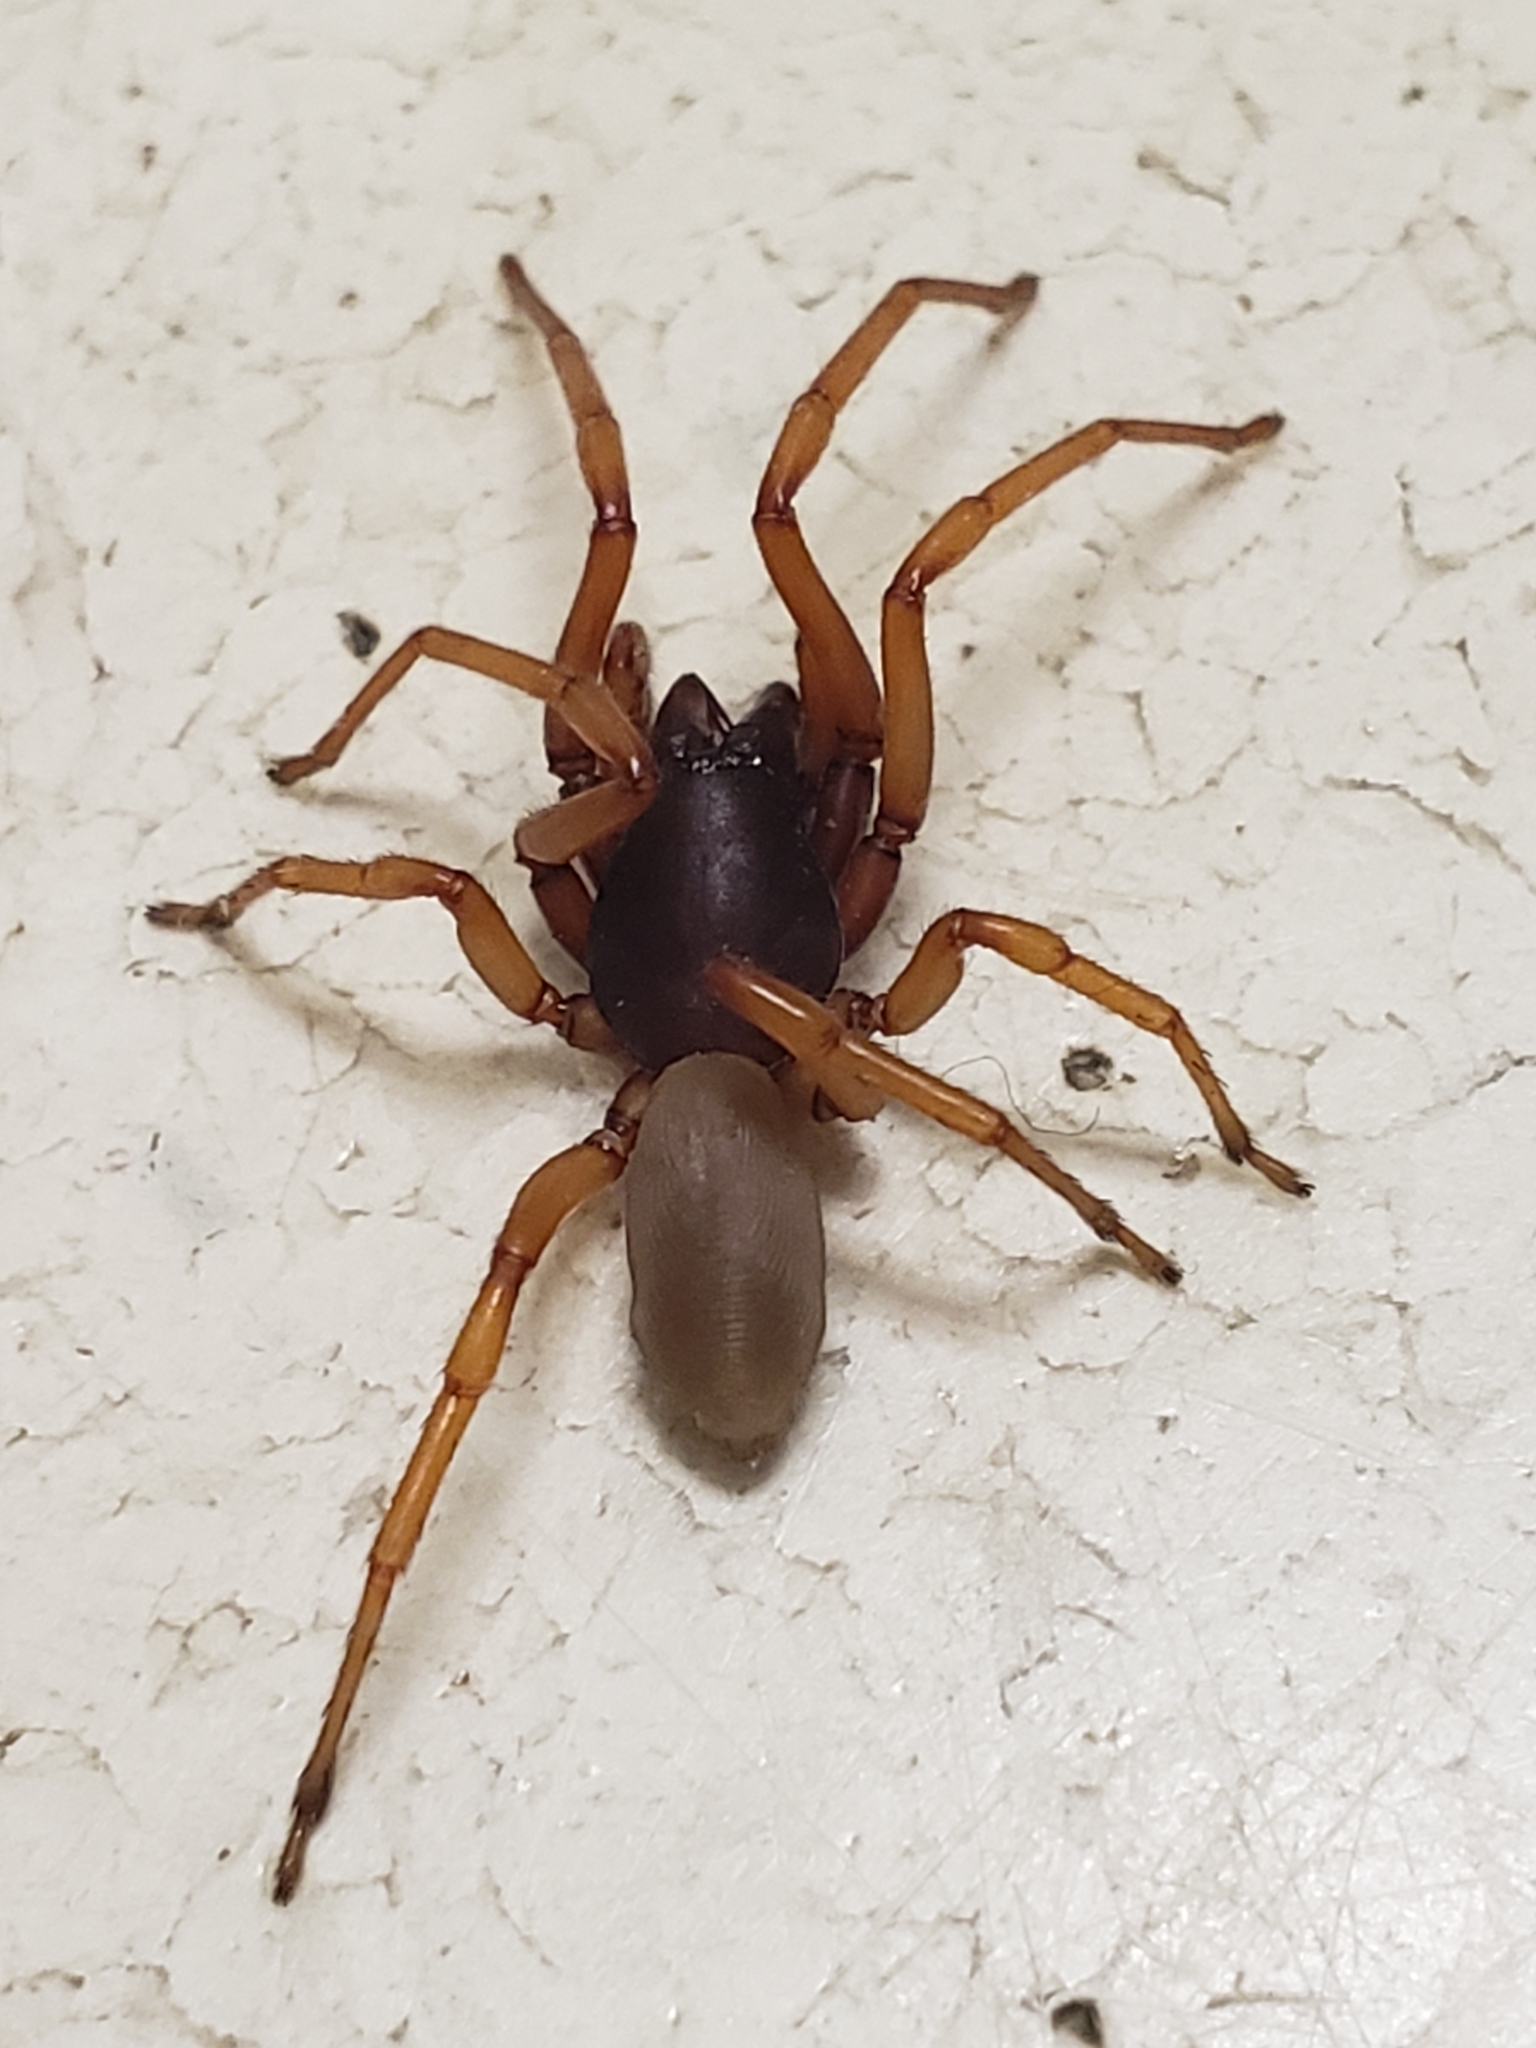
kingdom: Animalia
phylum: Arthropoda
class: Arachnida
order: Araneae
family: Dysderidae
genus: Dysdera
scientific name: Dysdera crocata
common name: Woodlouse spider
